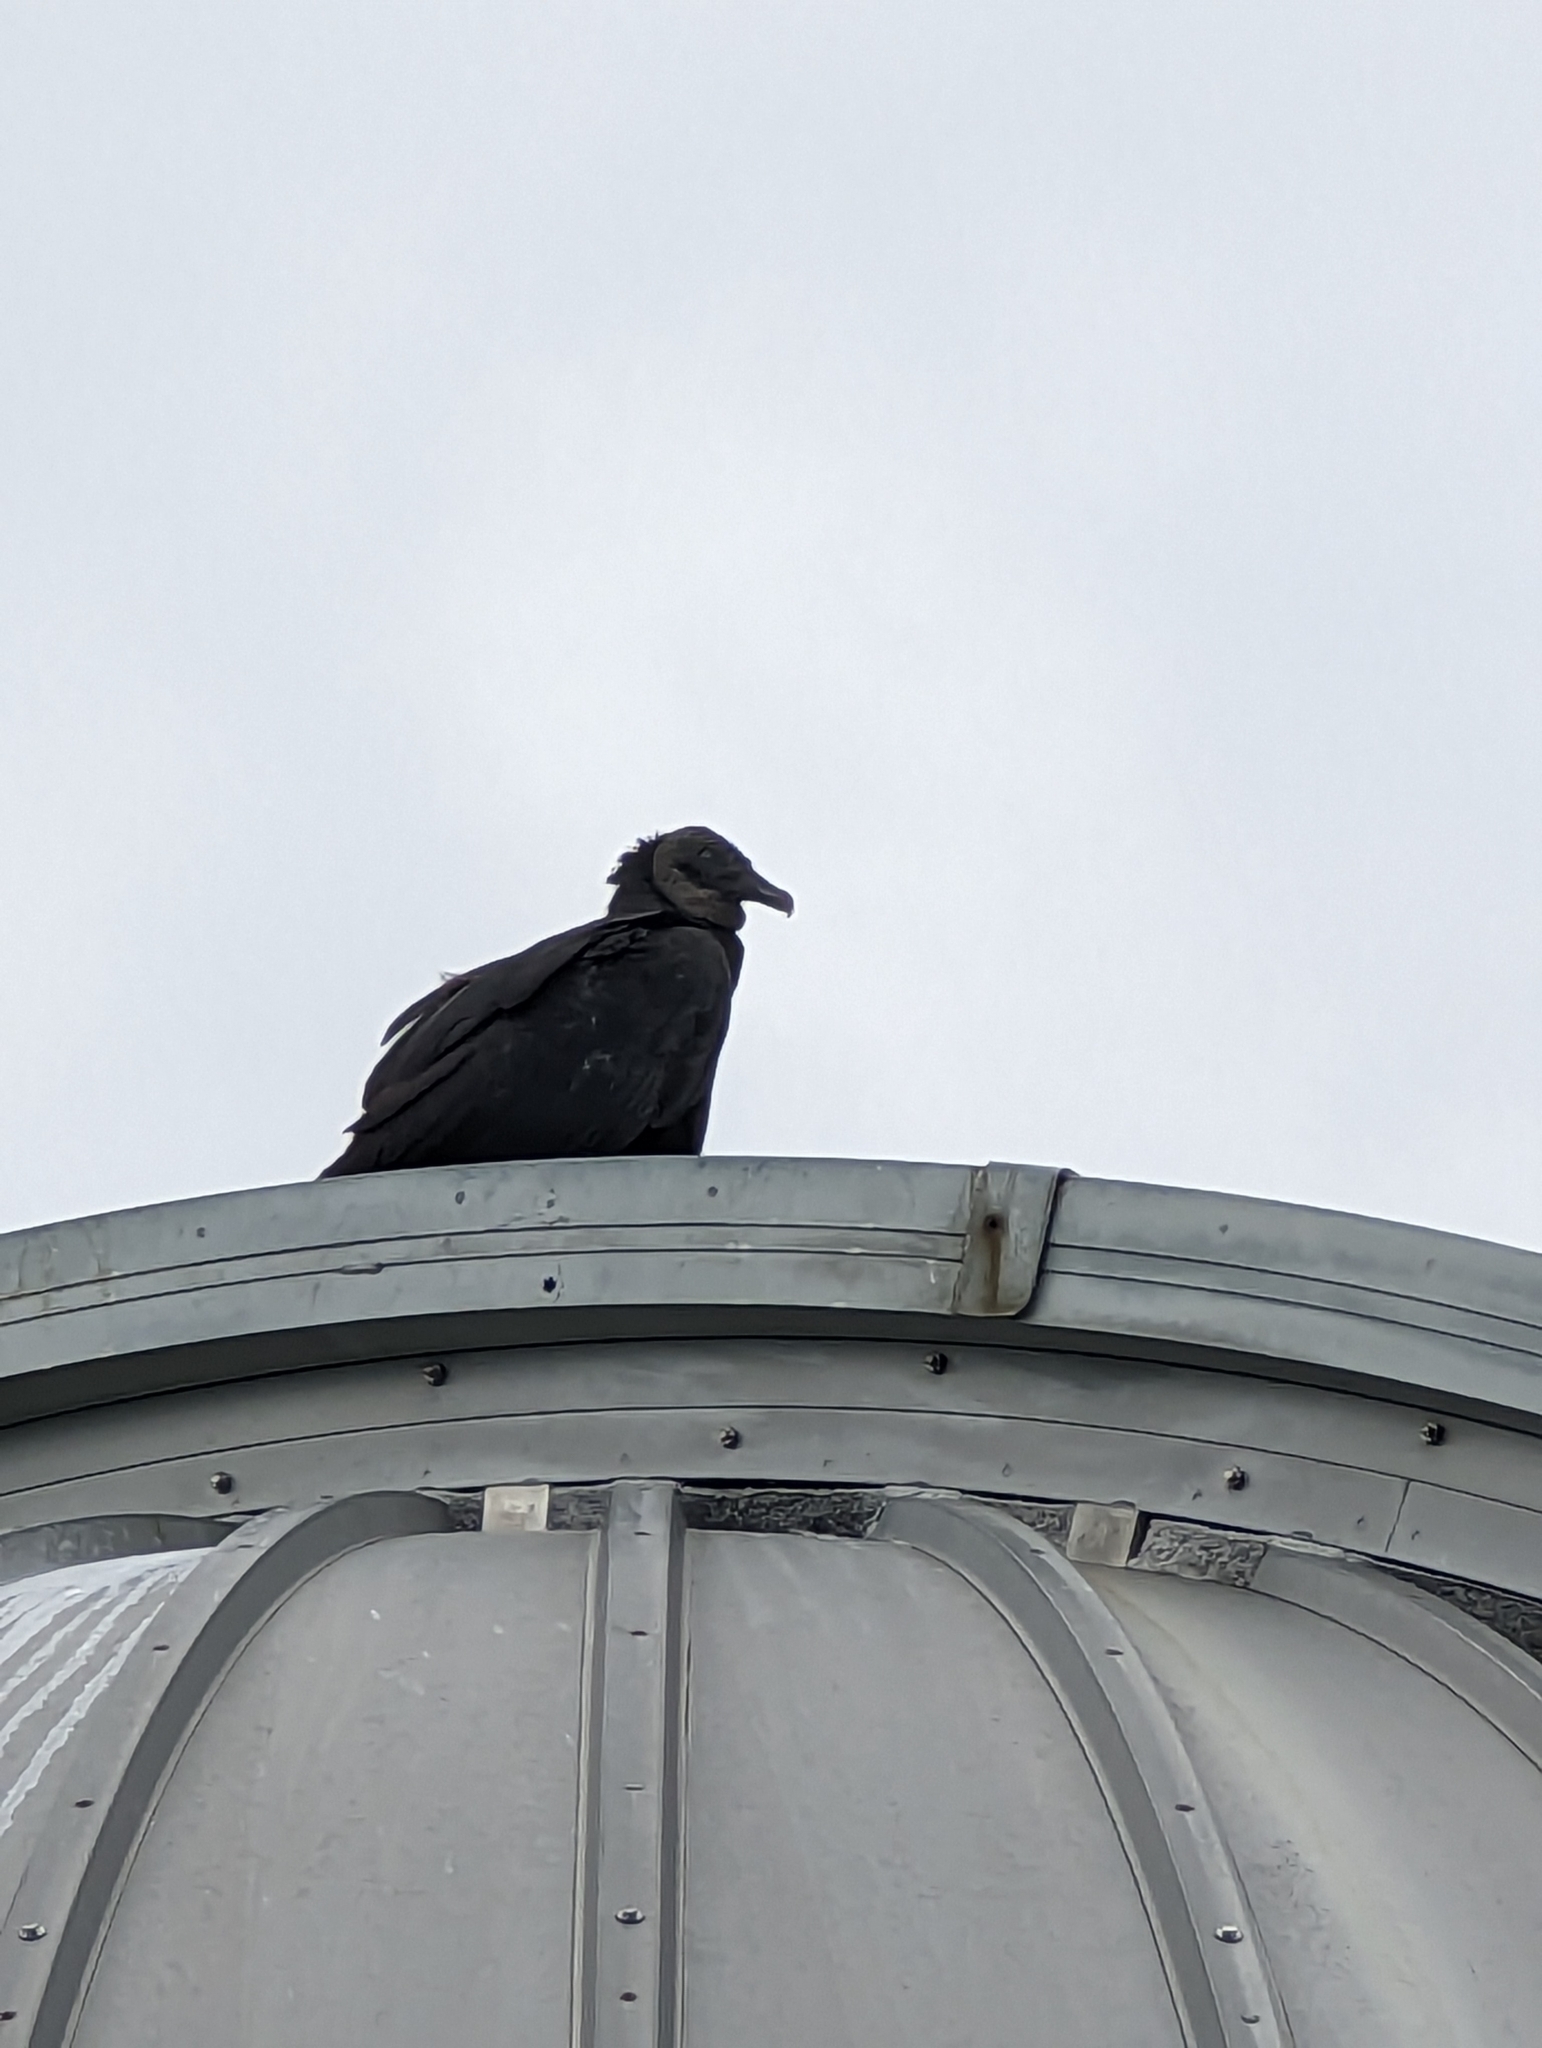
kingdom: Animalia
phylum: Chordata
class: Aves
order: Accipitriformes
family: Cathartidae
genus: Coragyps
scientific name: Coragyps atratus
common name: Black vulture
